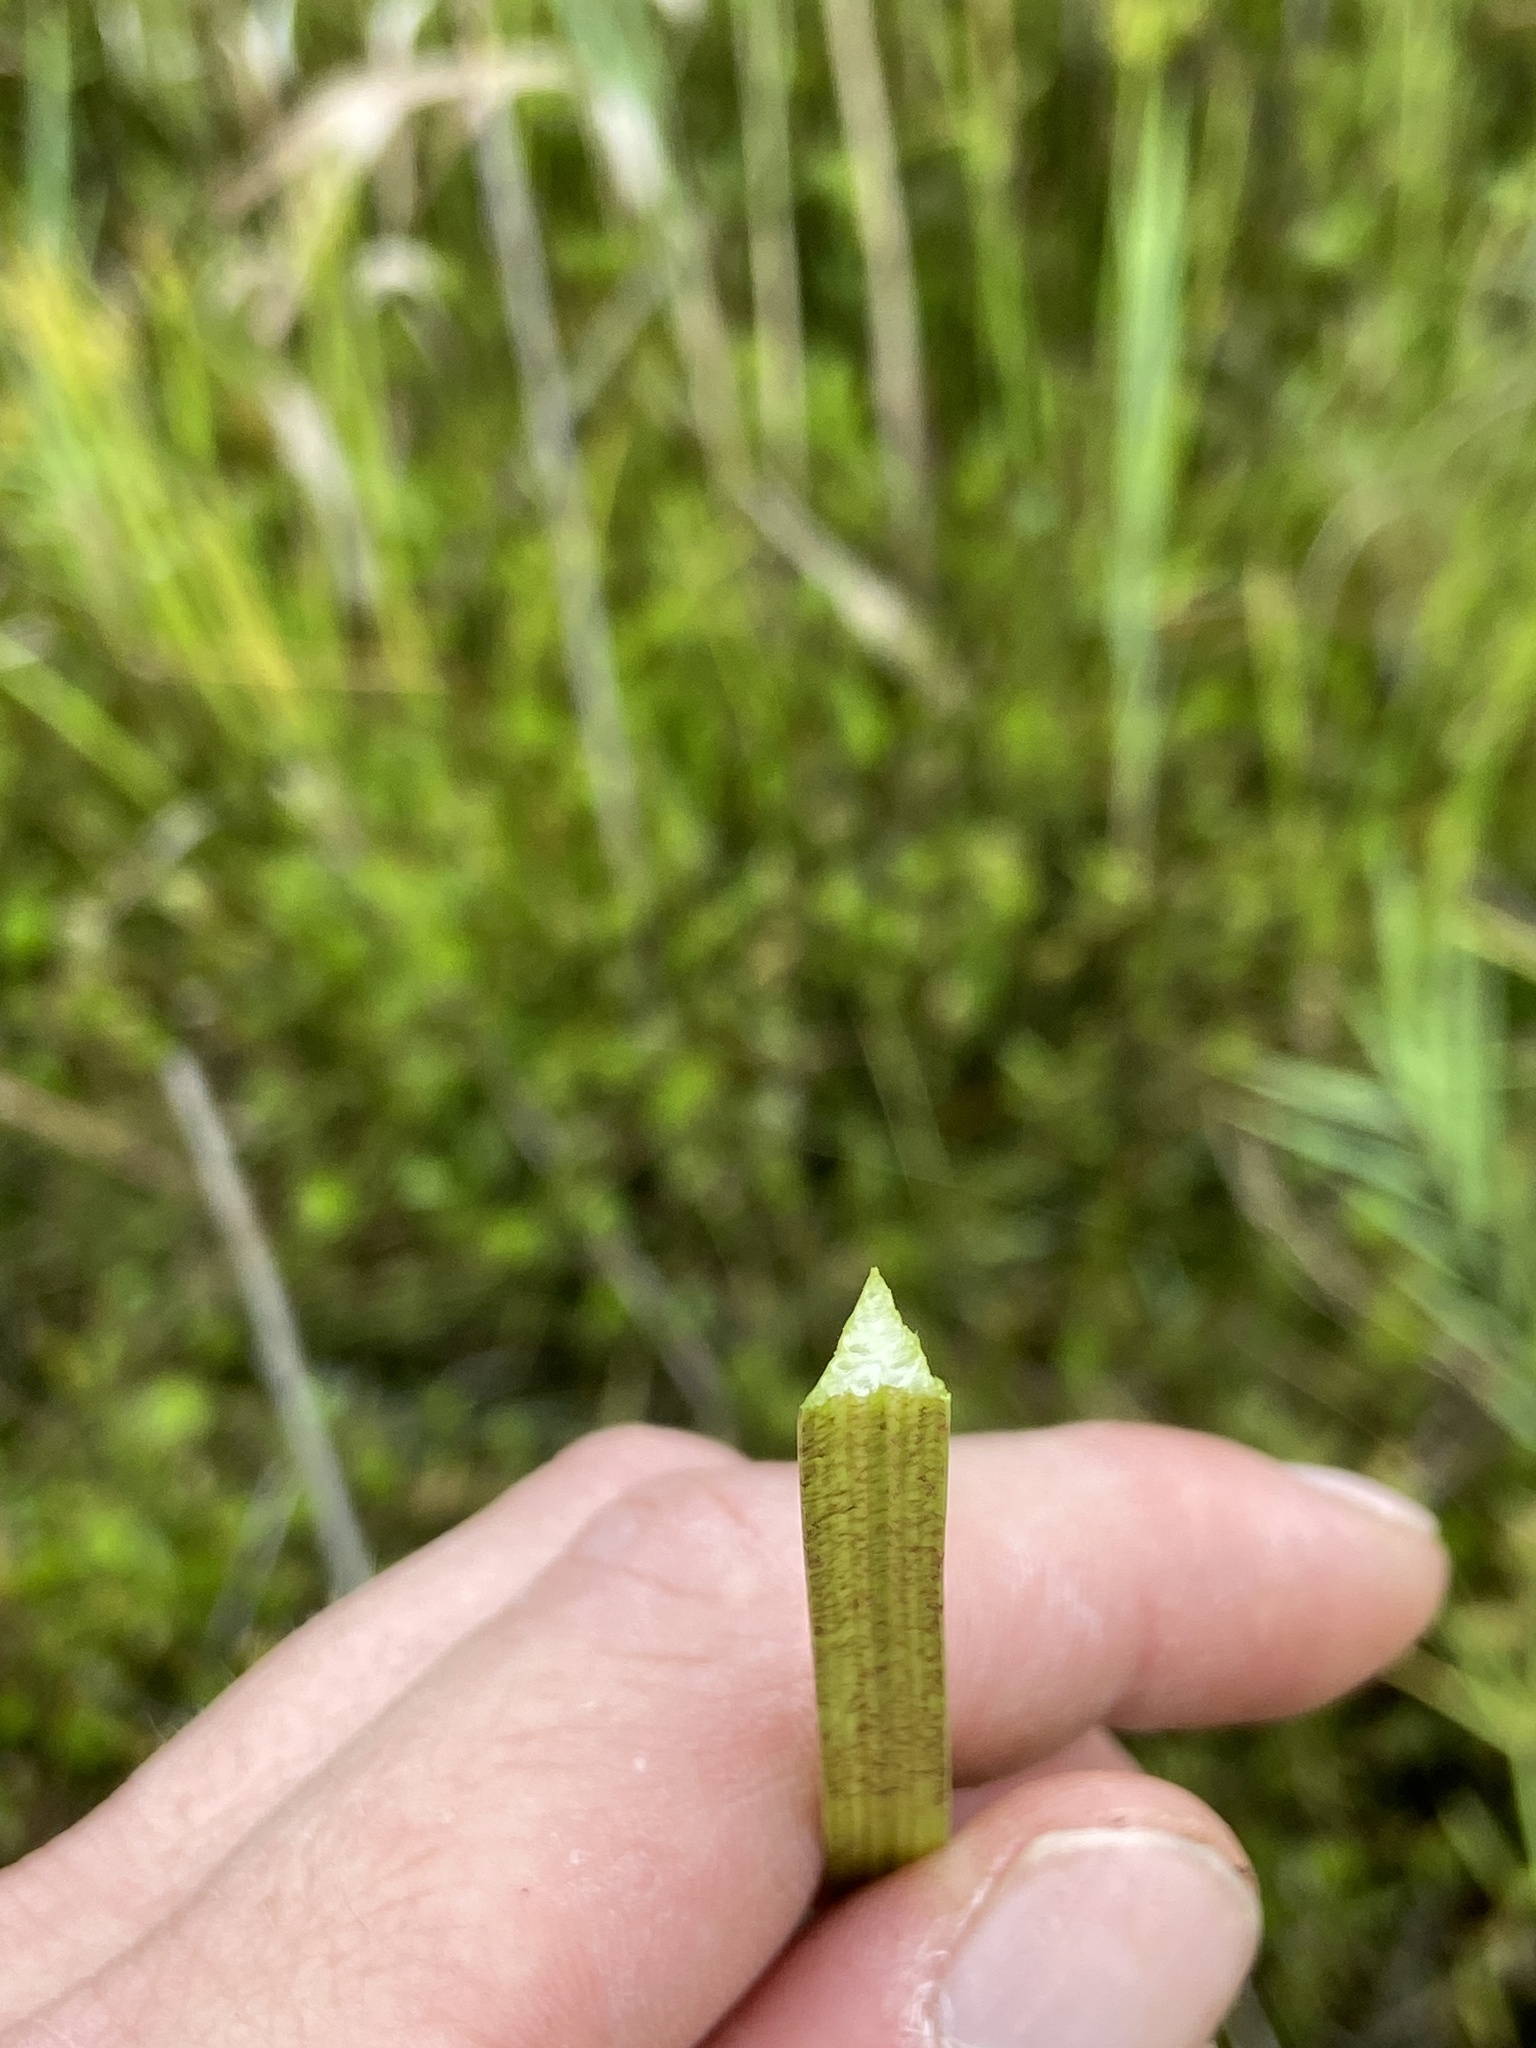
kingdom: Plantae
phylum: Tracheophyta
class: Liliopsida
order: Poales
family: Cyperaceae
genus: Cyperus
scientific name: Cyperus haspan
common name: Haspan flatsedge
